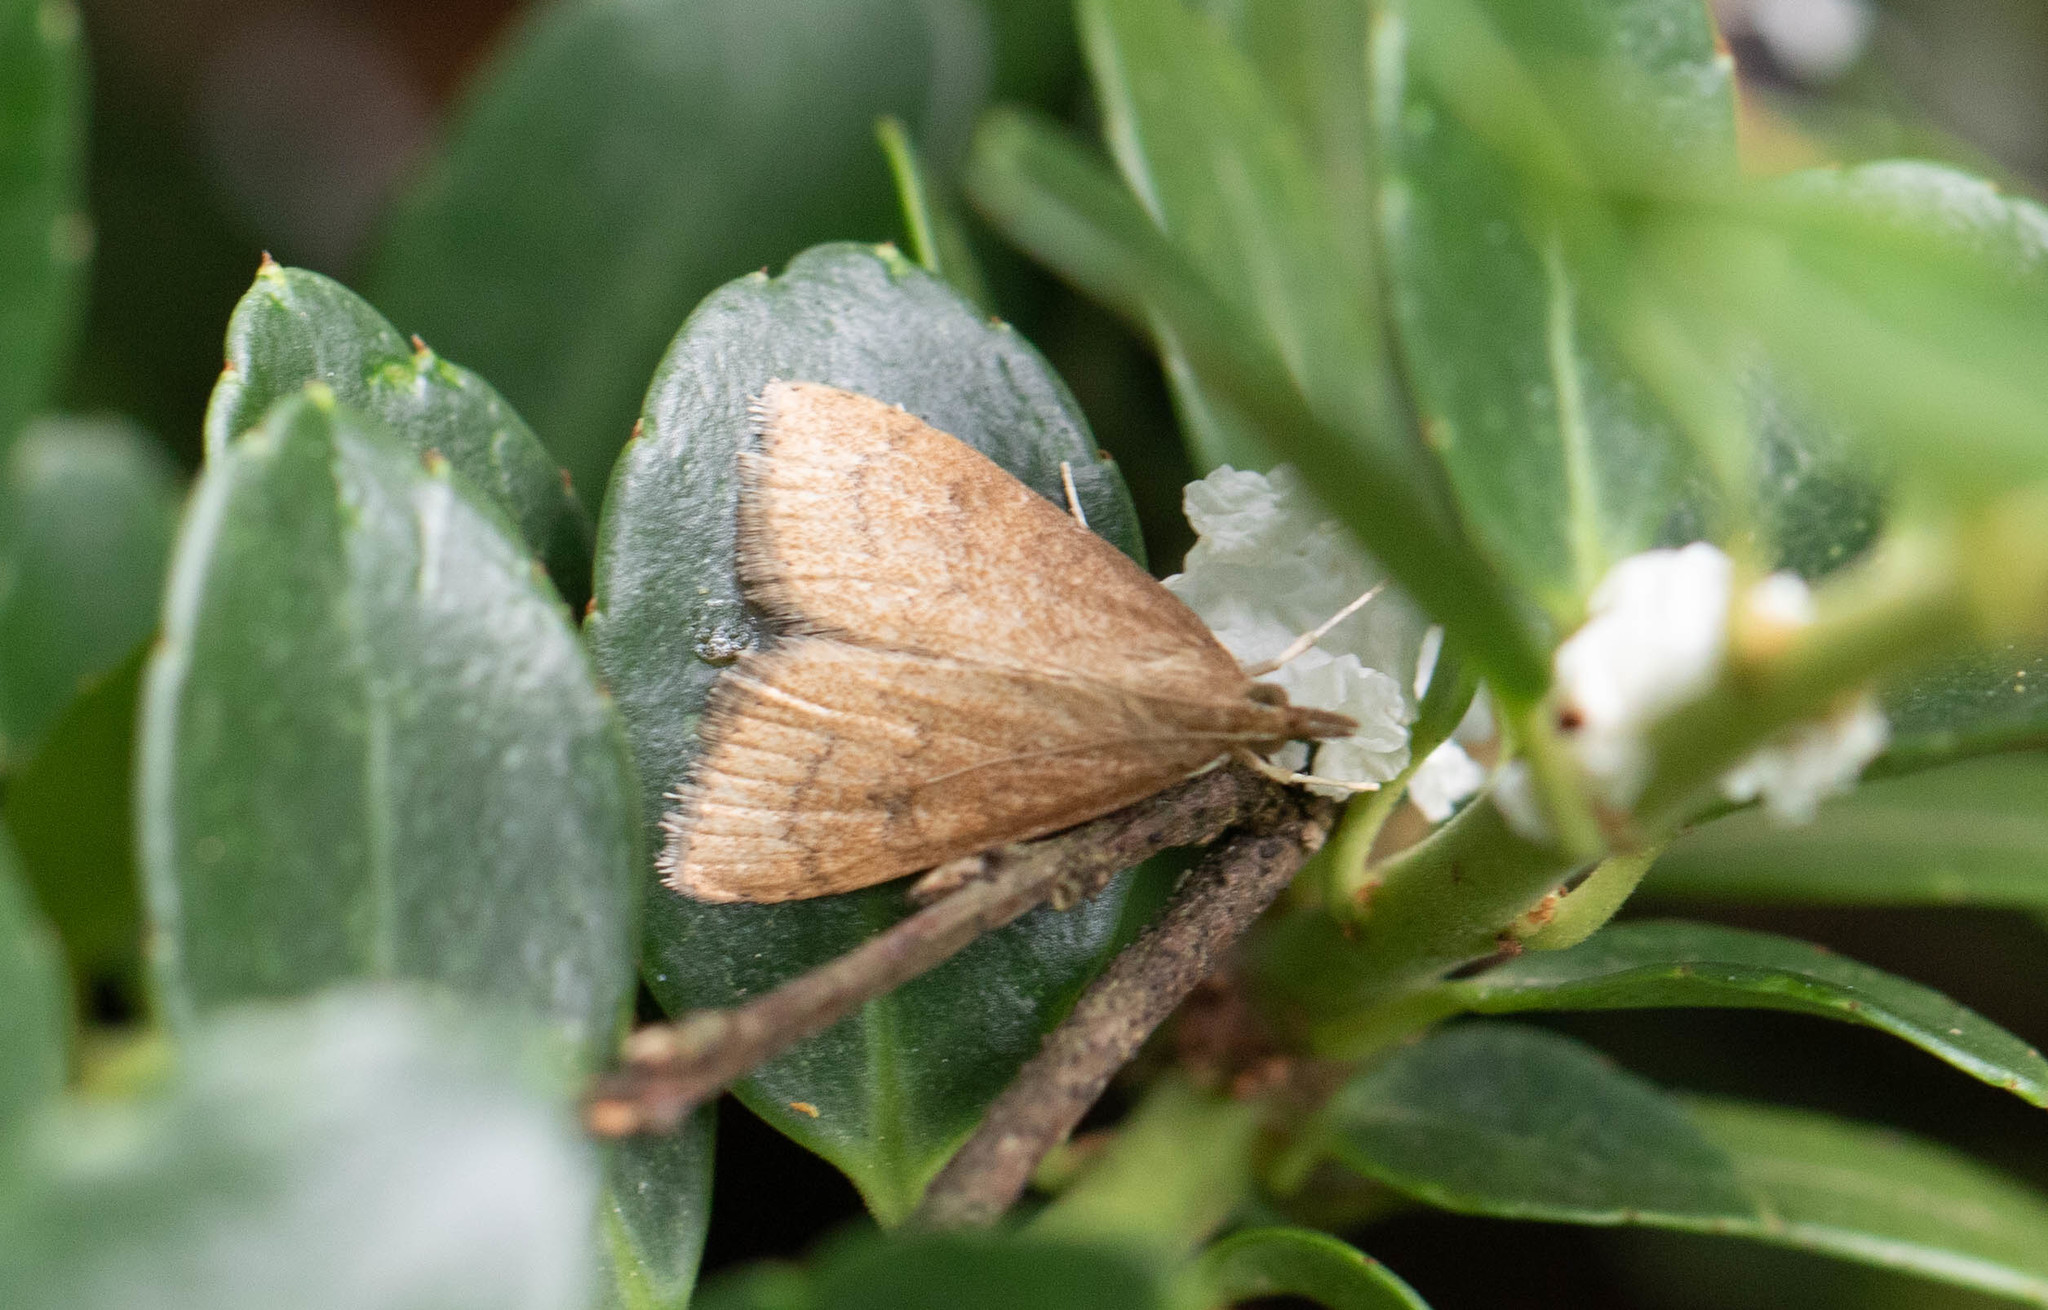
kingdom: Animalia
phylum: Arthropoda
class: Insecta
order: Lepidoptera
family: Crambidae
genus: Udea
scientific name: Udea rubigalis
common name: Celery leaftier moth
